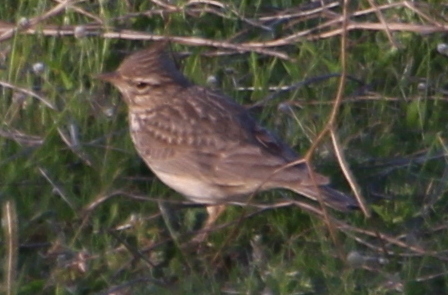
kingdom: Animalia
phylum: Chordata
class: Aves
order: Passeriformes
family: Alaudidae
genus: Galerida
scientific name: Galerida theklae
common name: Thekla lark
